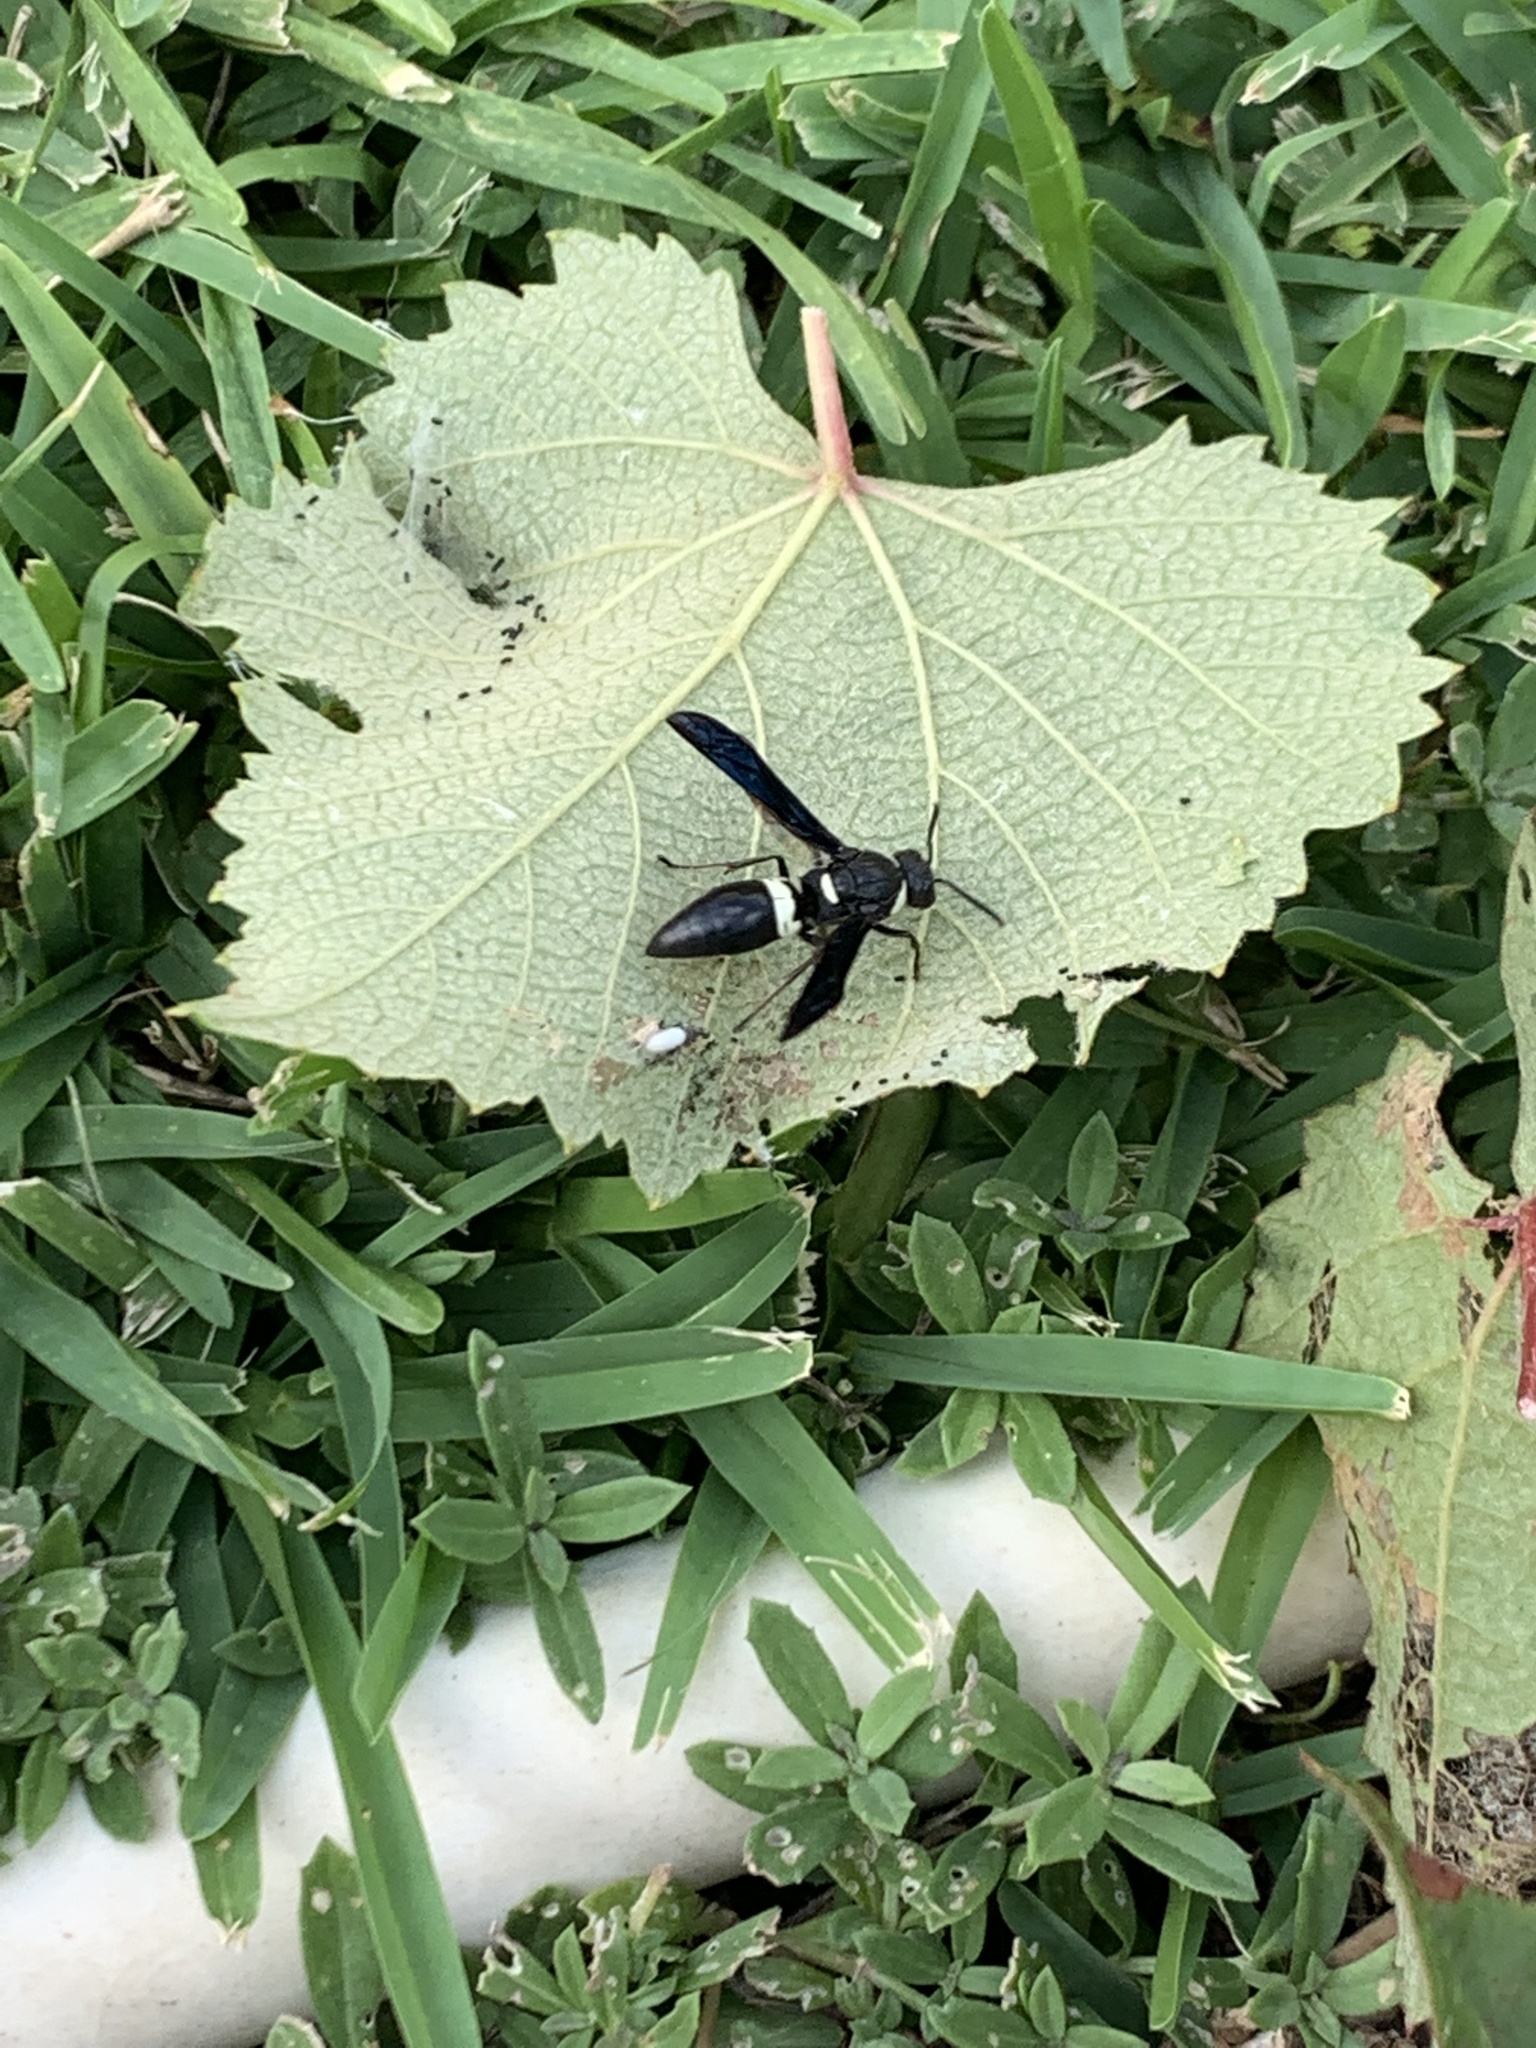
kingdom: Animalia
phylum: Arthropoda
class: Insecta
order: Hymenoptera
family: Eumenidae
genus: Monobia
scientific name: Monobia quadridens
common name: Four-toothed mason wasp
